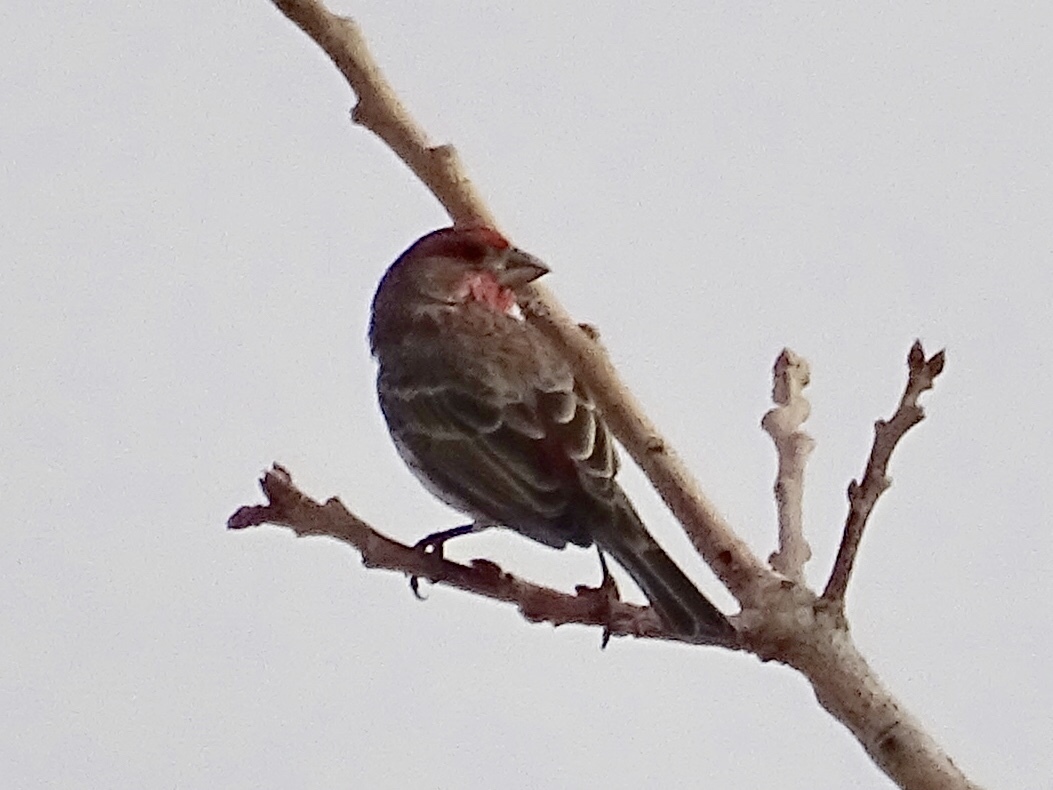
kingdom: Animalia
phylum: Chordata
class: Aves
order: Passeriformes
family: Fringillidae
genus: Haemorhous
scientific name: Haemorhous mexicanus
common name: House finch
